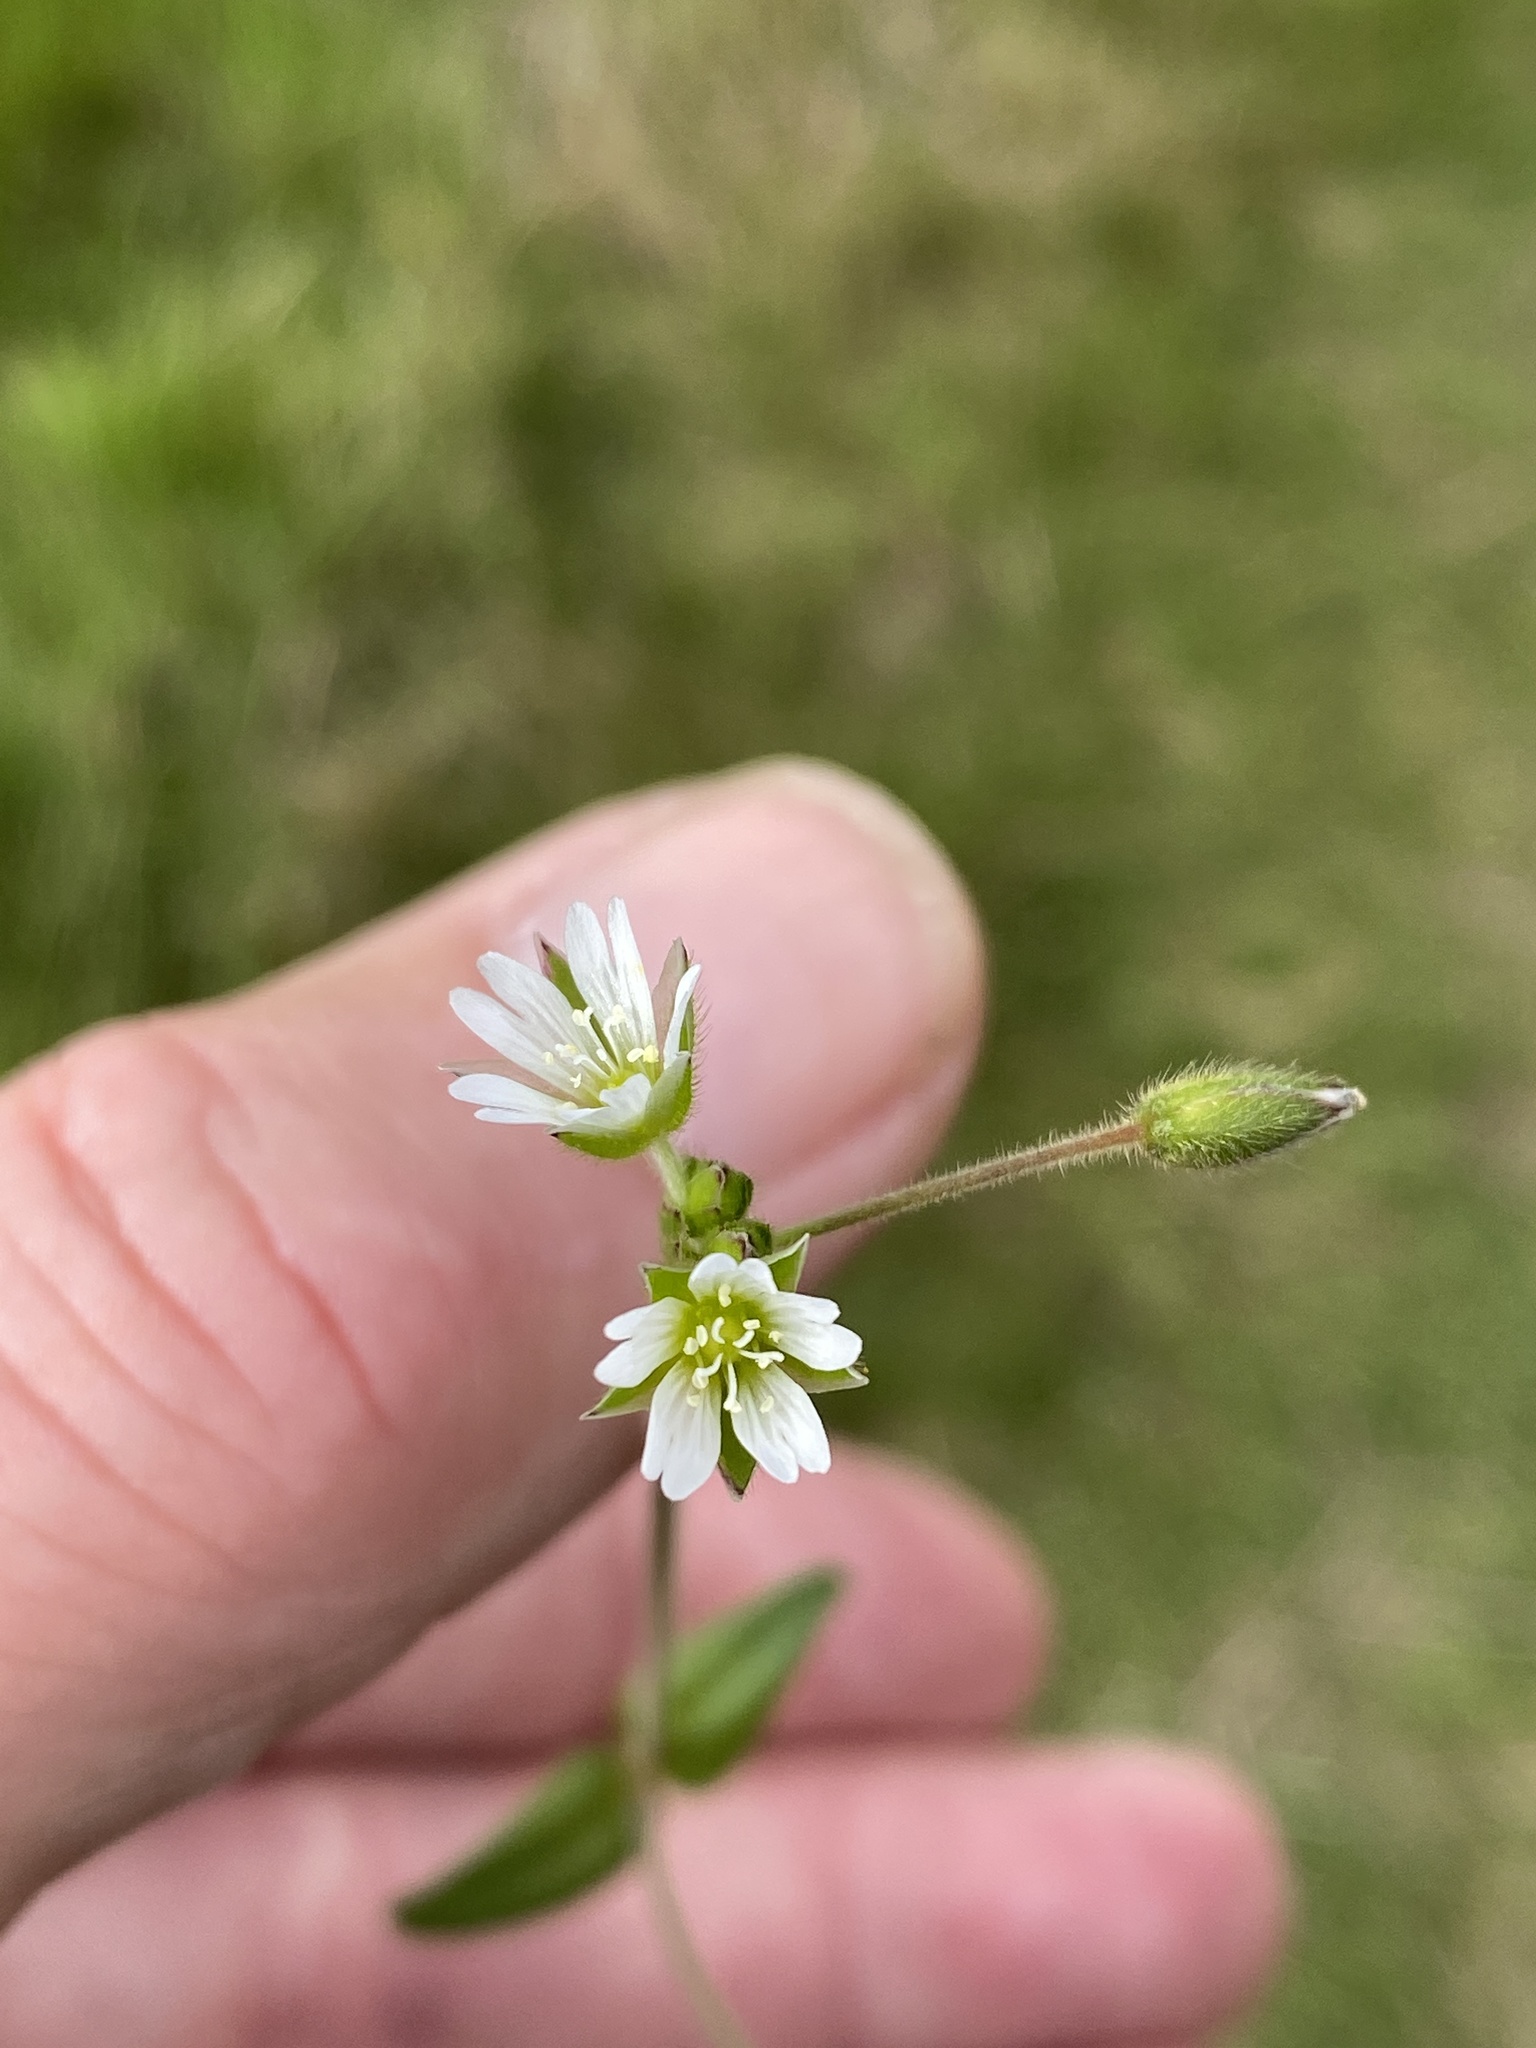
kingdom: Plantae
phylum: Tracheophyta
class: Magnoliopsida
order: Caryophyllales
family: Caryophyllaceae
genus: Cerastium
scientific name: Cerastium fontanum
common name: Common mouse-ear
